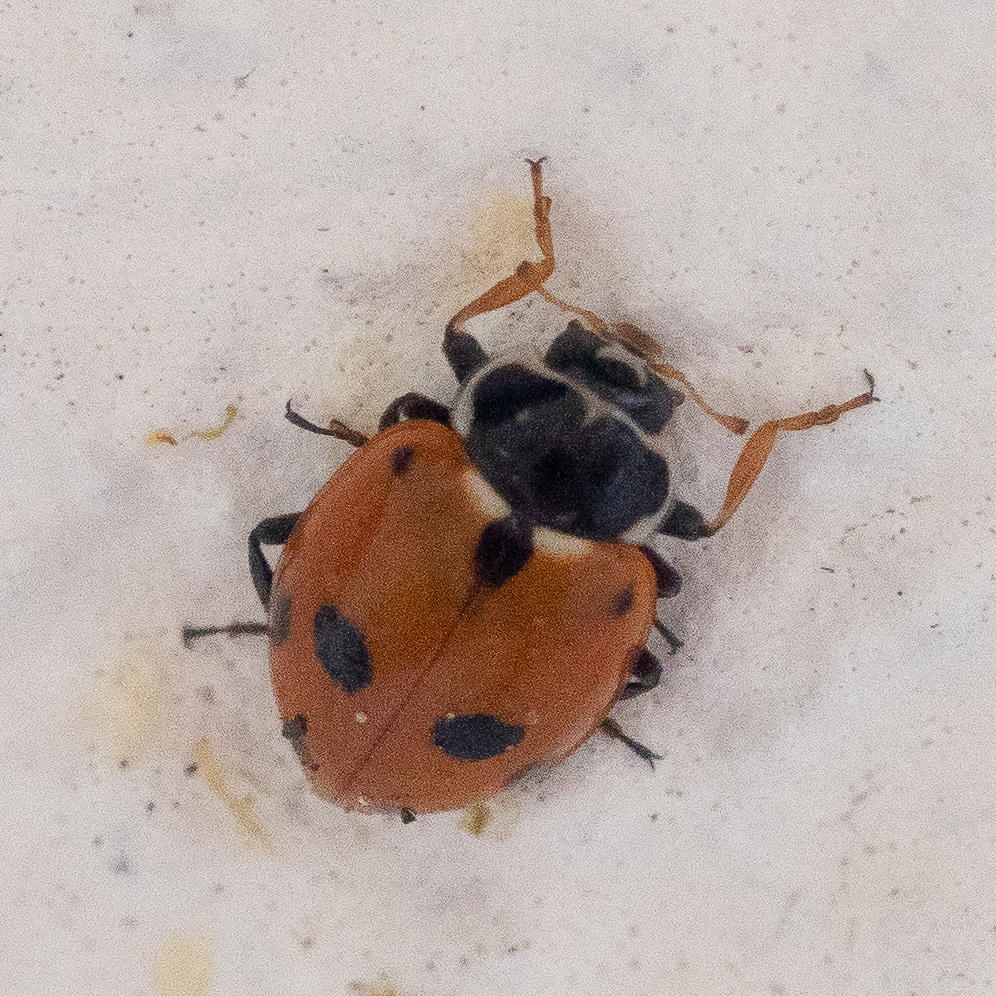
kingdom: Animalia
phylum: Arthropoda
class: Insecta
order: Coleoptera
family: Coccinellidae
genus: Hippodamia
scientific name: Hippodamia variegata
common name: Ladybird beetle
